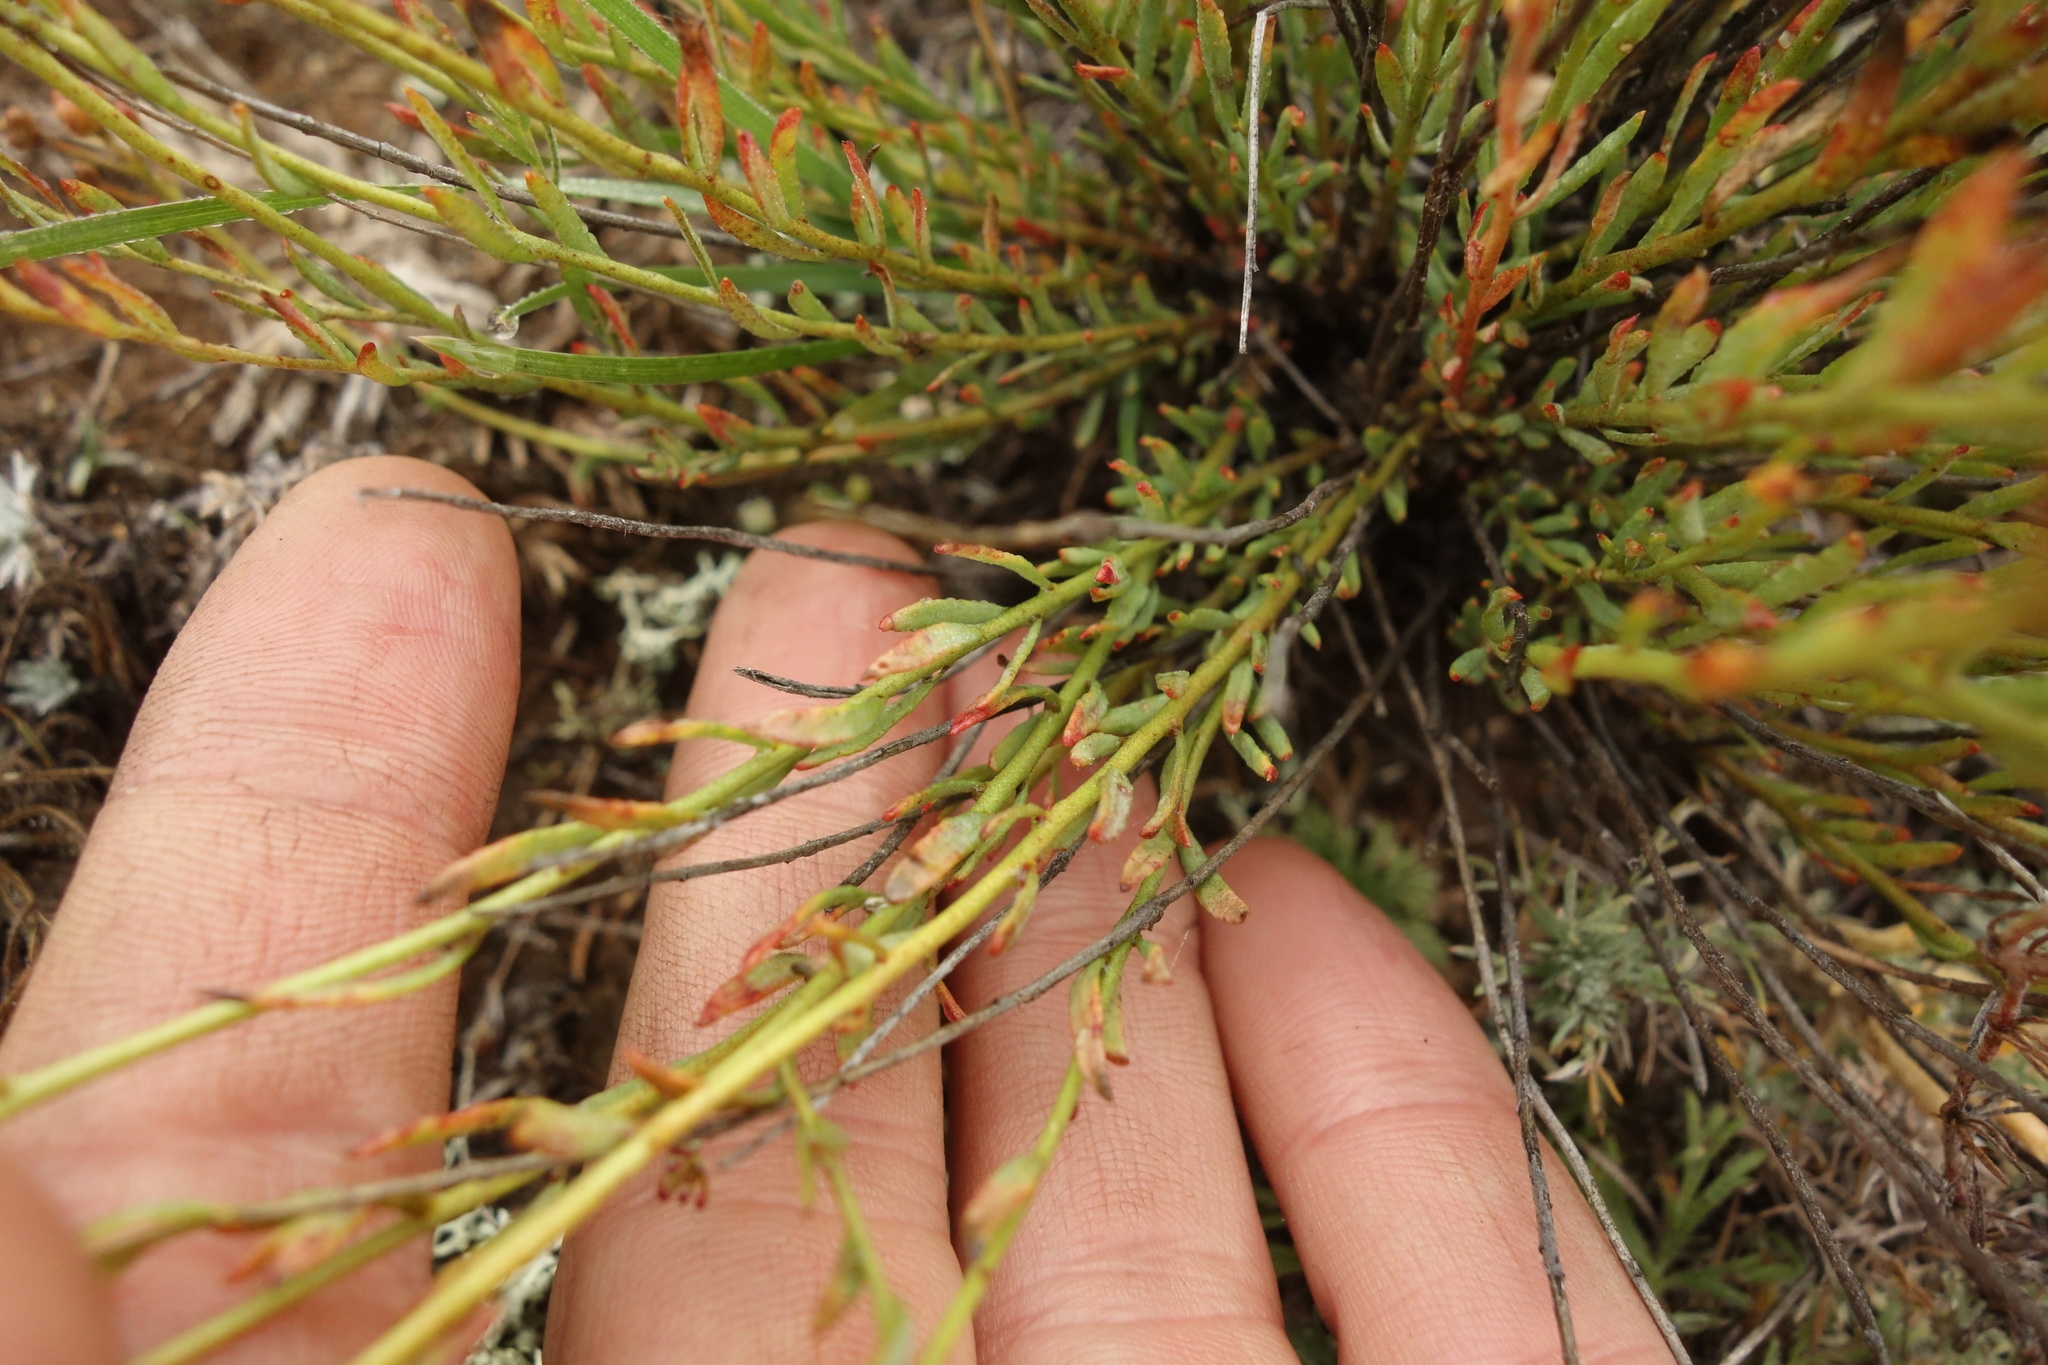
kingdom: Plantae
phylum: Tracheophyta
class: Magnoliopsida
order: Sapindales
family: Rutaceae
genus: Haplophyllum
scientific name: Haplophyllum dauricum
